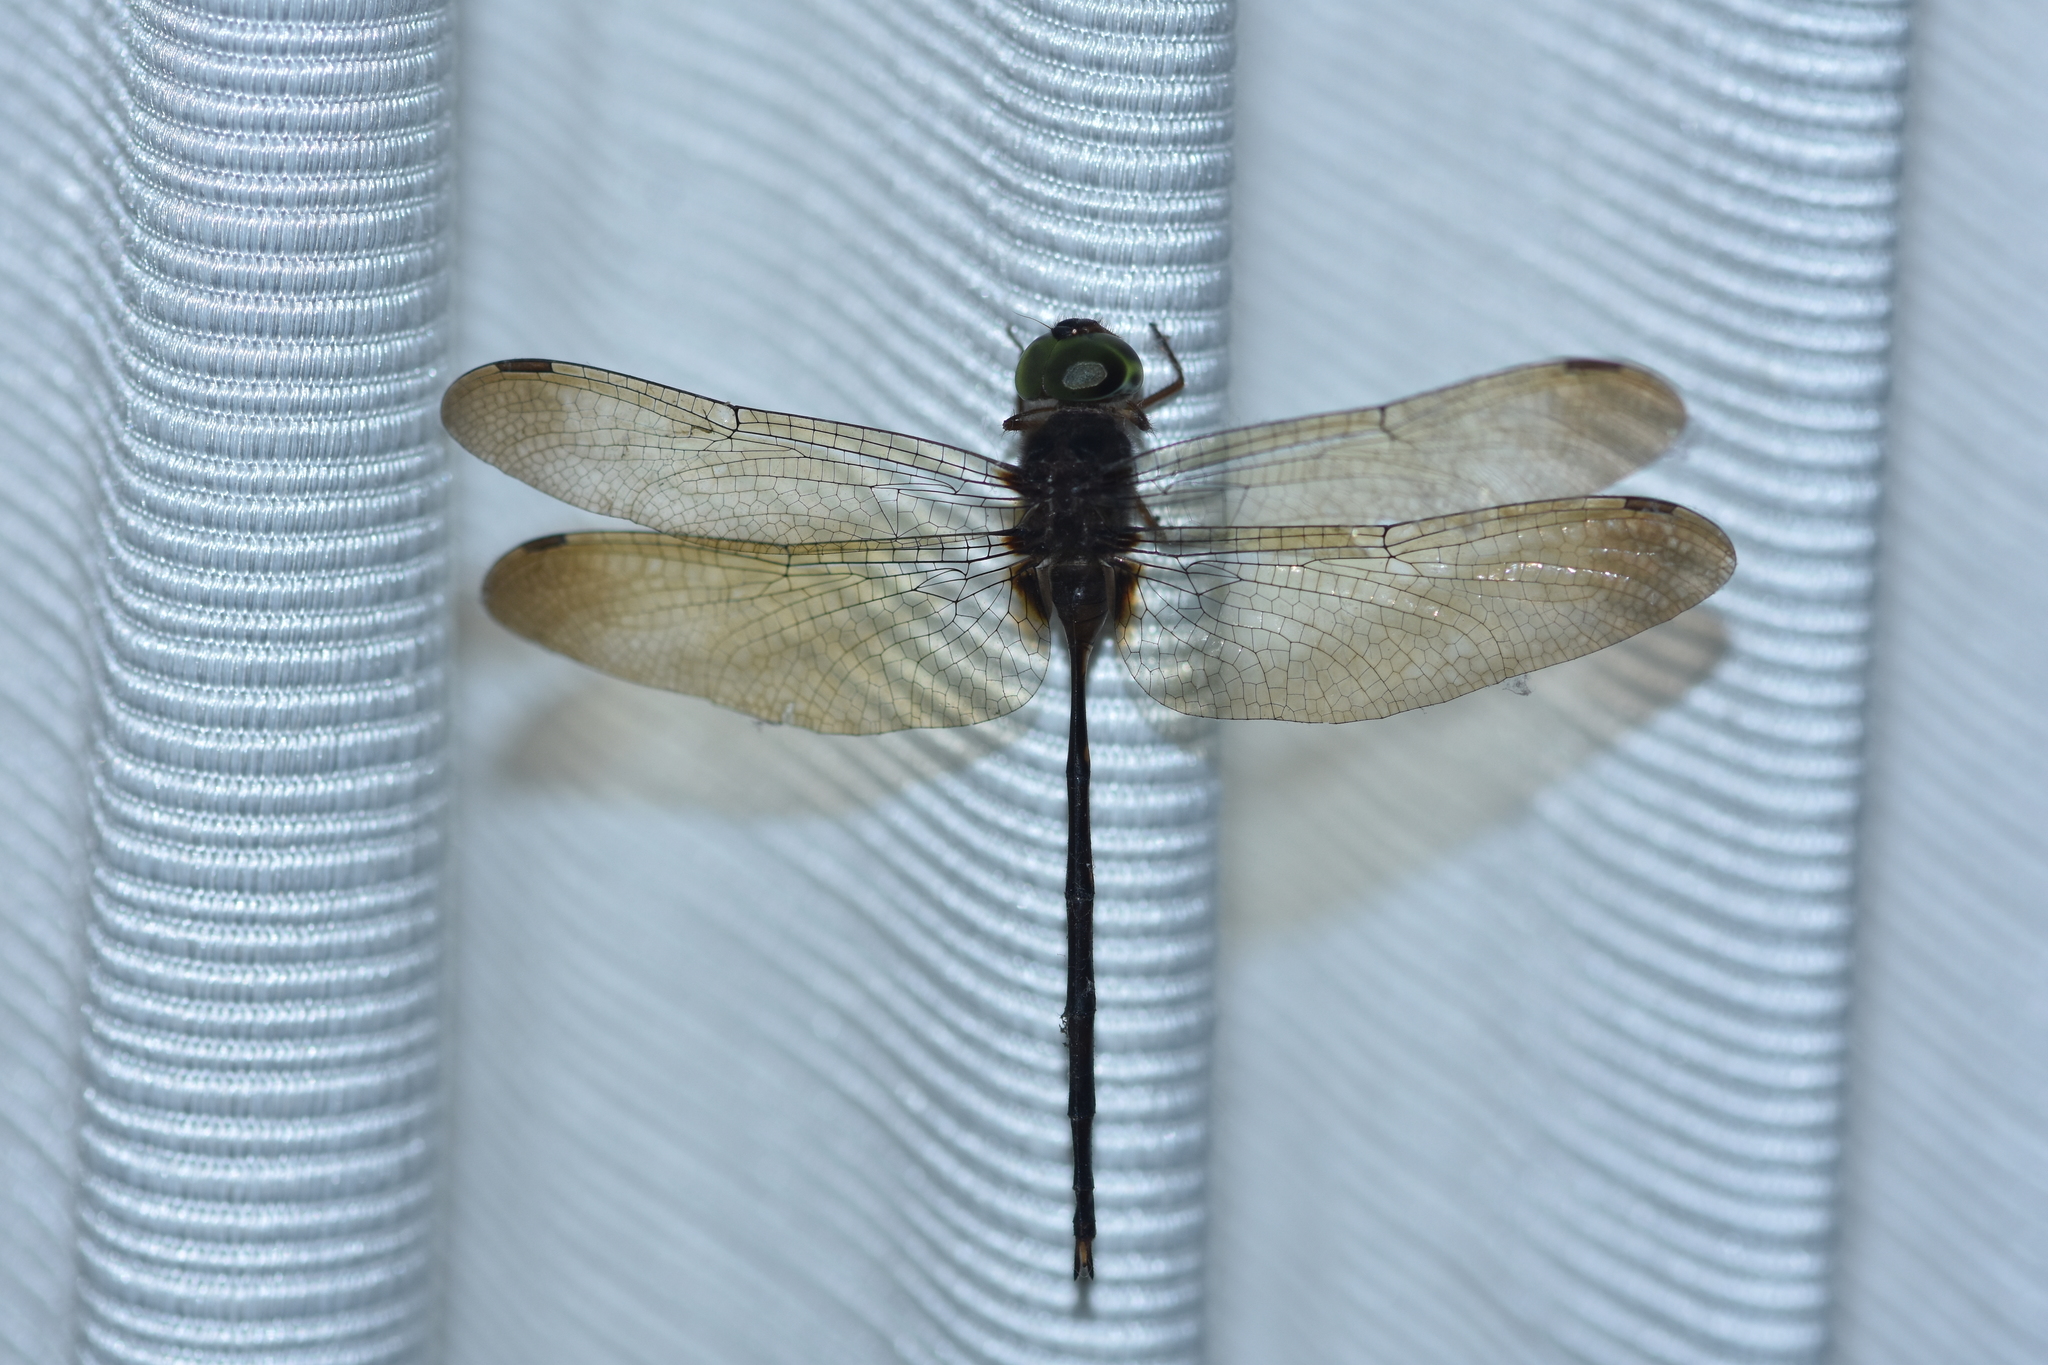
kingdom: Animalia
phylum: Arthropoda
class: Insecta
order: Odonata
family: Libellulidae
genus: Zyxomma
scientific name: Zyxomma petiolatum
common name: Dingy dusk-darter
